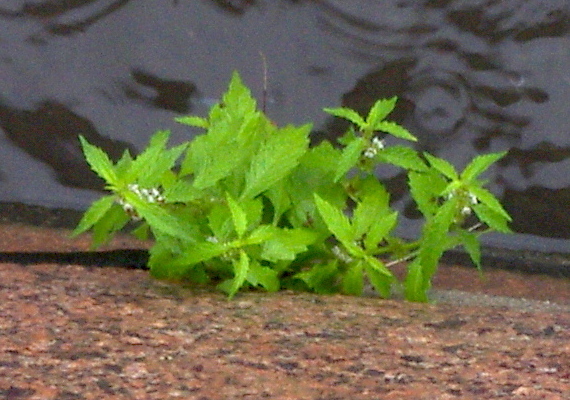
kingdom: Plantae
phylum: Tracheophyta
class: Magnoliopsida
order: Lamiales
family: Lamiaceae
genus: Lycopus
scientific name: Lycopus europaeus
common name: European bugleweed
